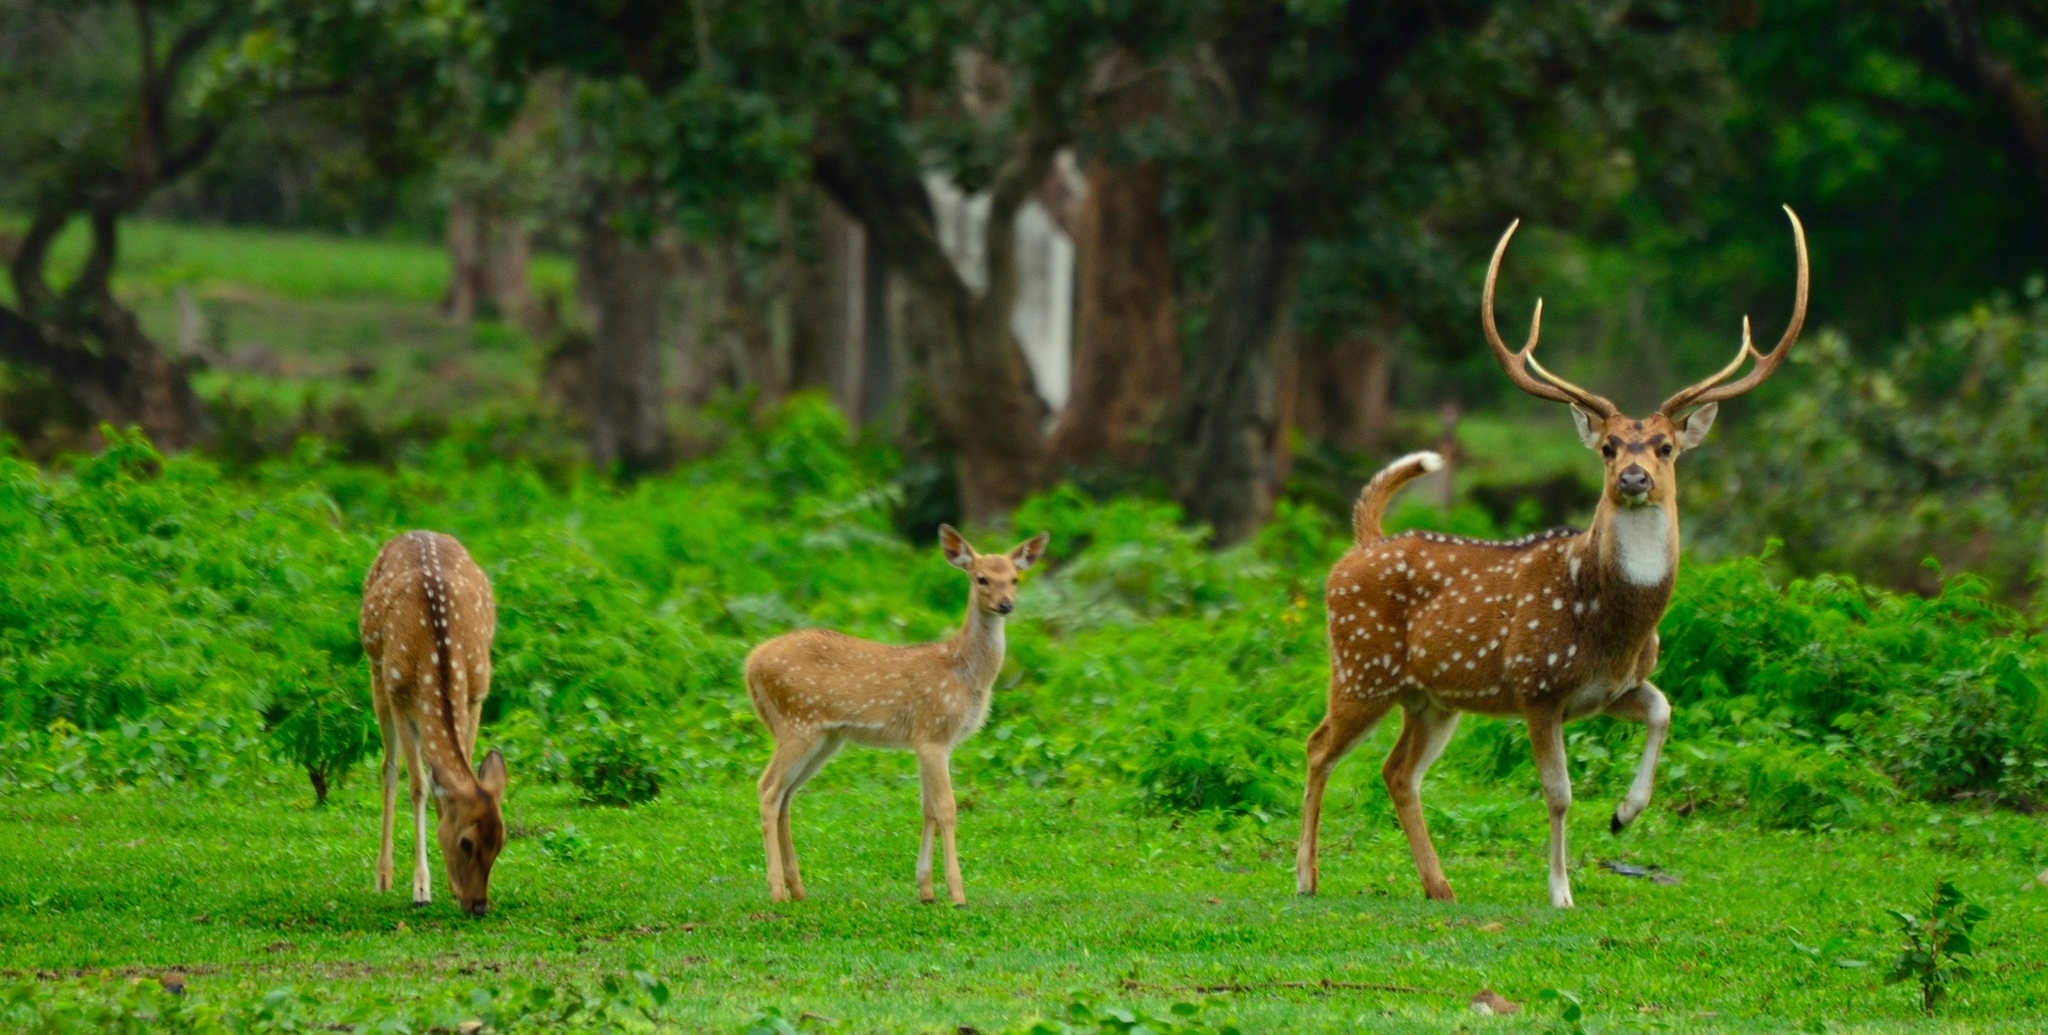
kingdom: Animalia
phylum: Chordata
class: Mammalia
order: Artiodactyla
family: Cervidae
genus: Axis
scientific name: Axis axis
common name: Chital
